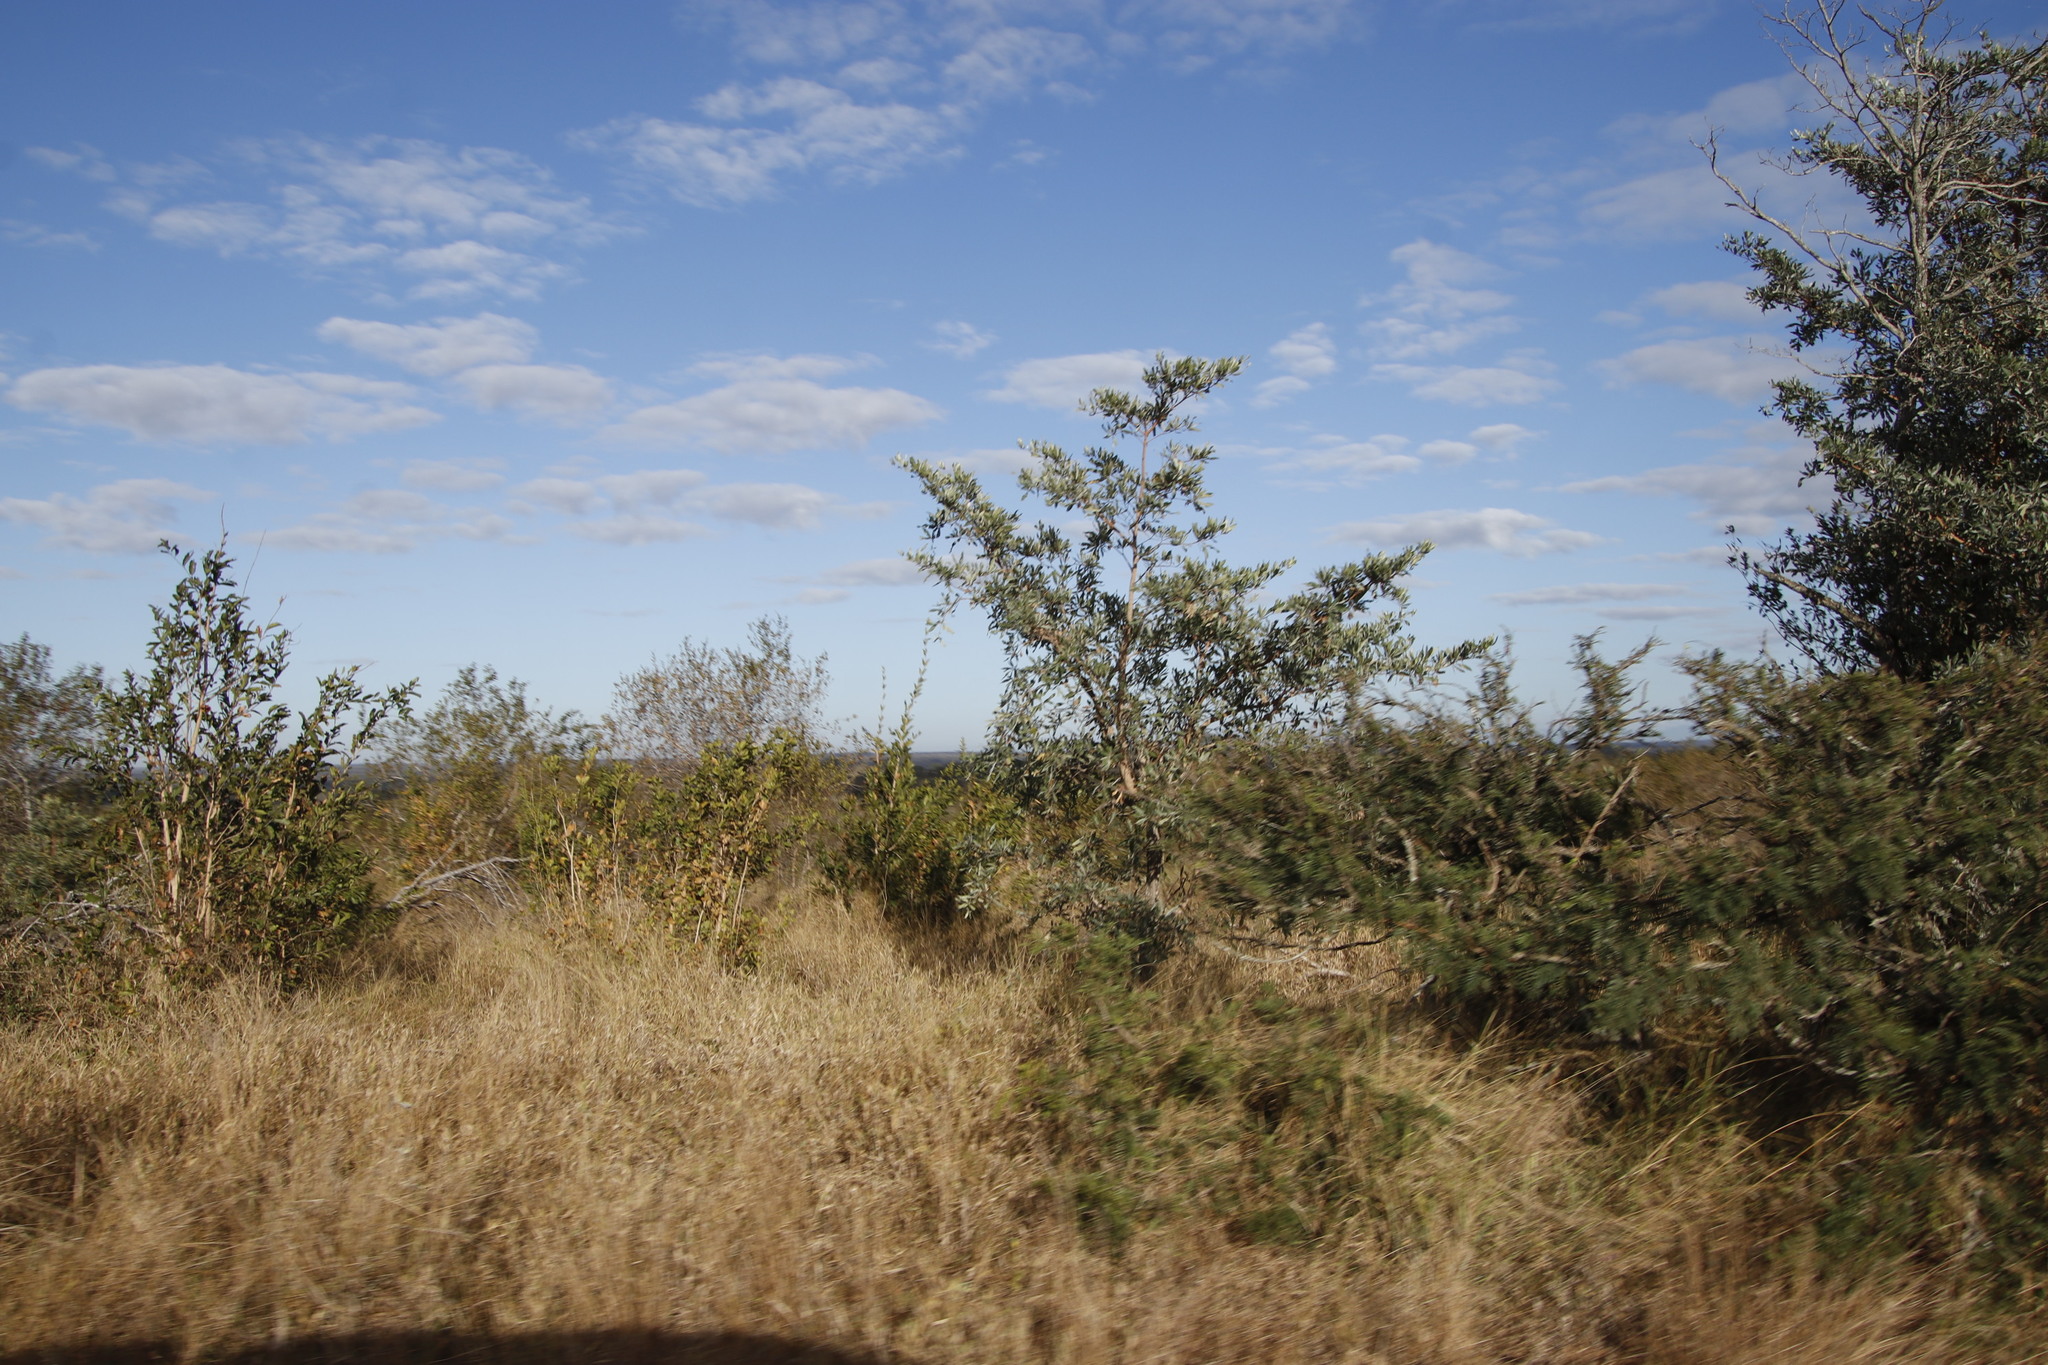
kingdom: Plantae
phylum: Tracheophyta
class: Magnoliopsida
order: Myrtales
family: Combretaceae
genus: Terminalia
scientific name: Terminalia sericea
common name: Clusterleaf
